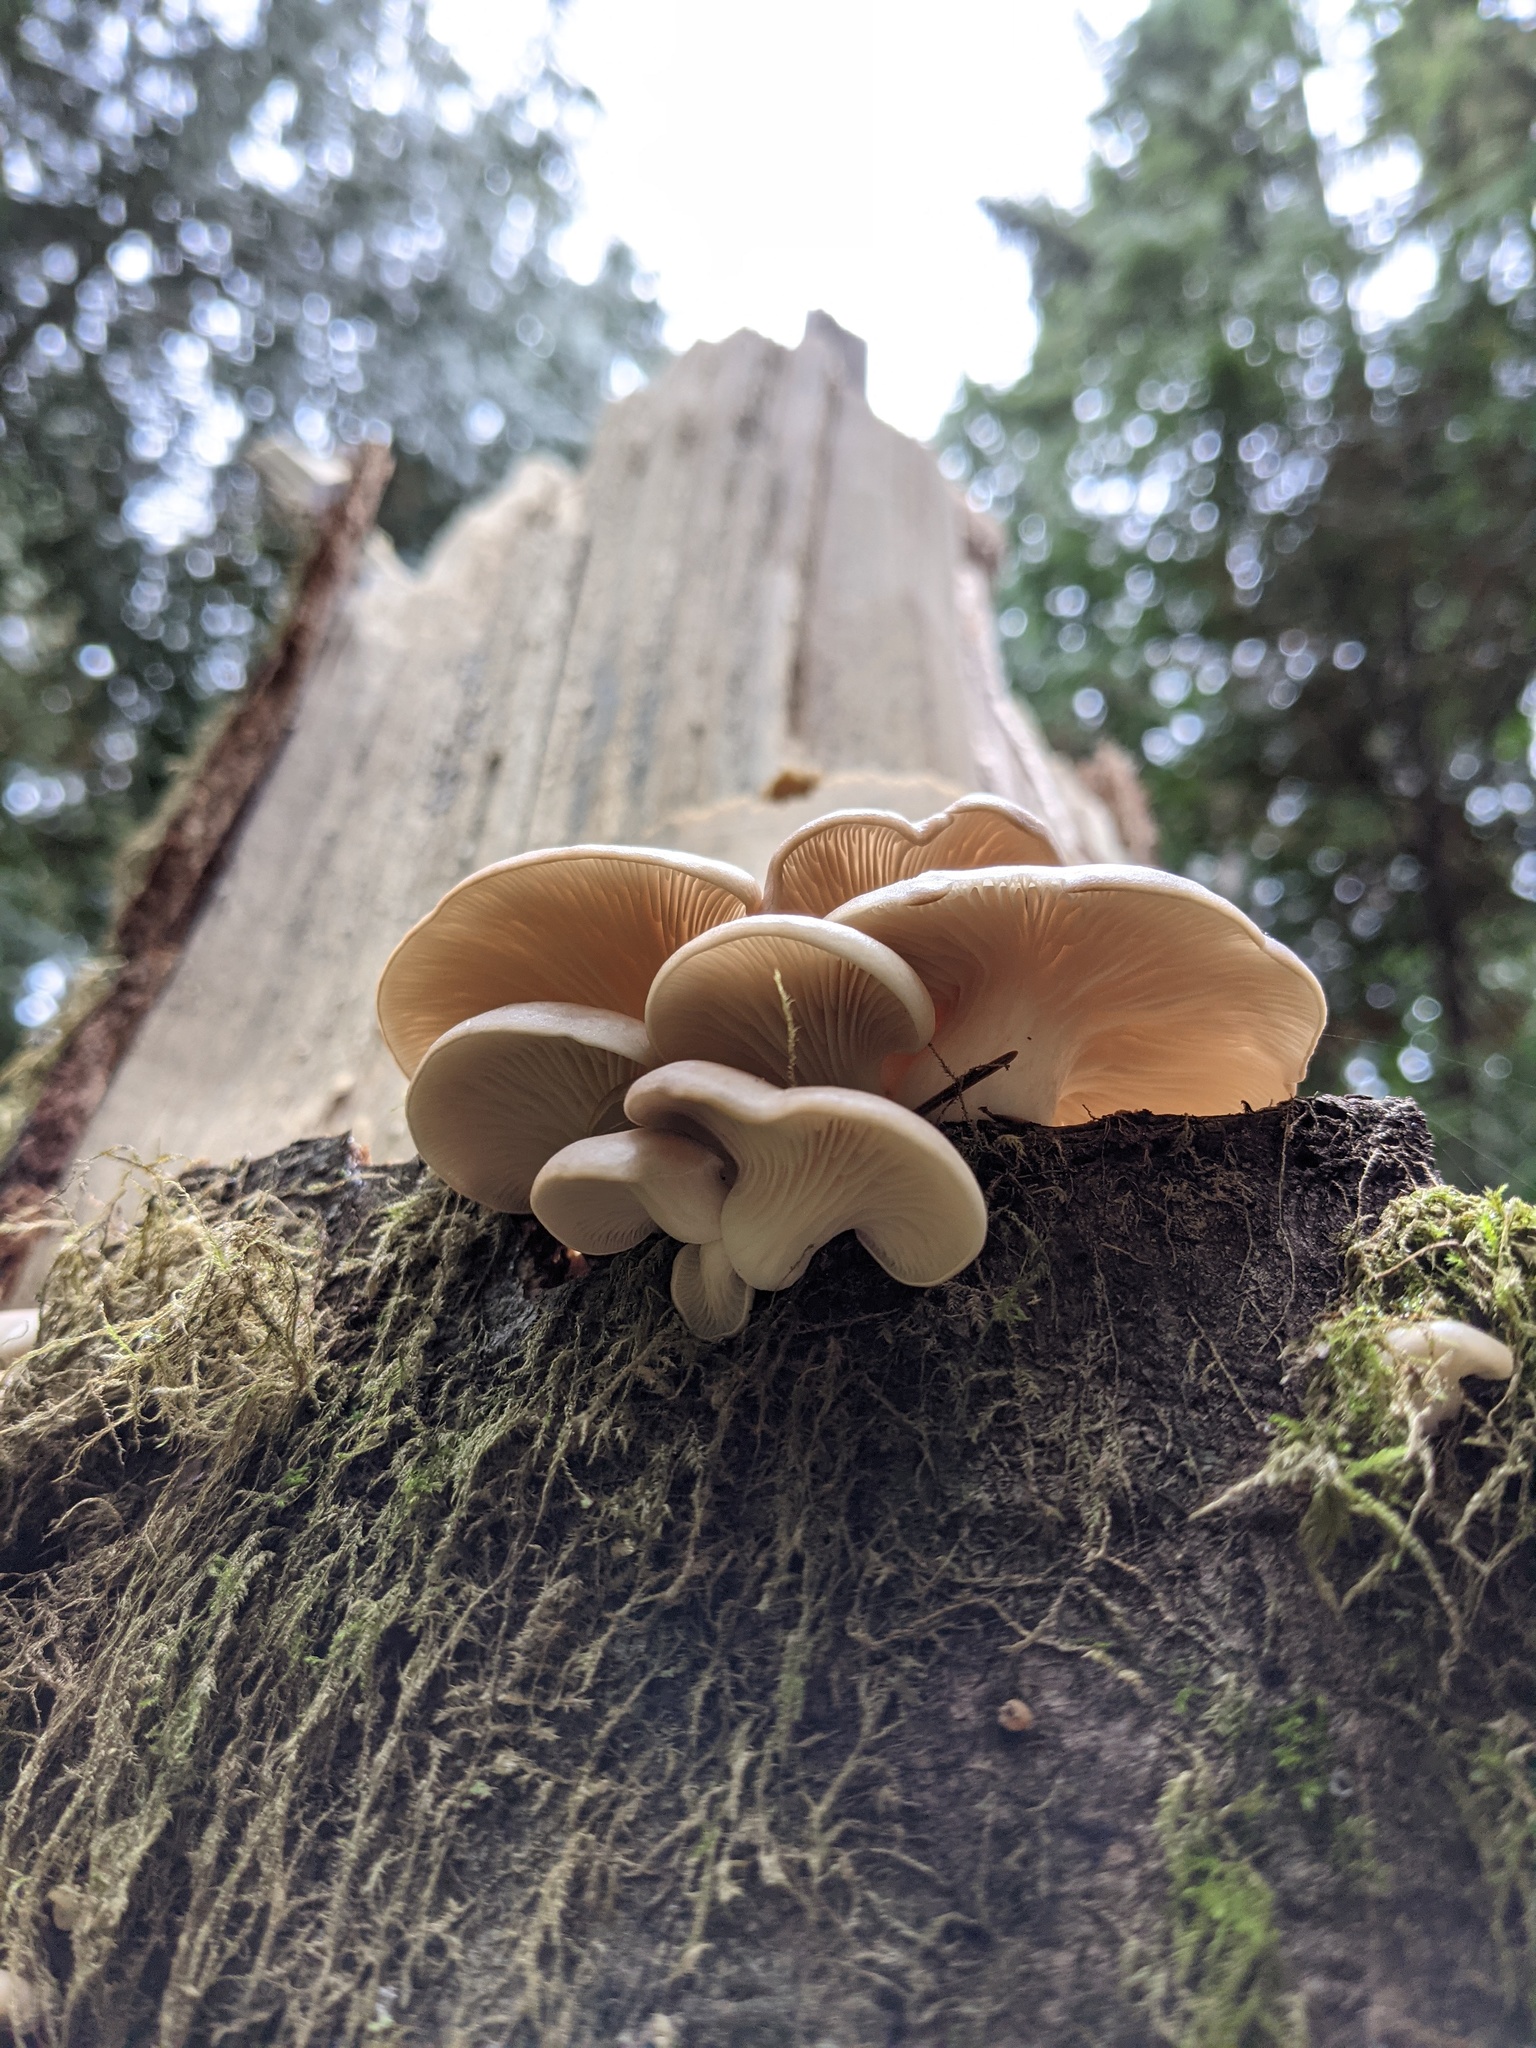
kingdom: Fungi
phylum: Basidiomycota
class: Agaricomycetes
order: Agaricales
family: Pleurotaceae
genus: Pleurotus
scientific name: Pleurotus ostreatus
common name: Oyster mushroom
